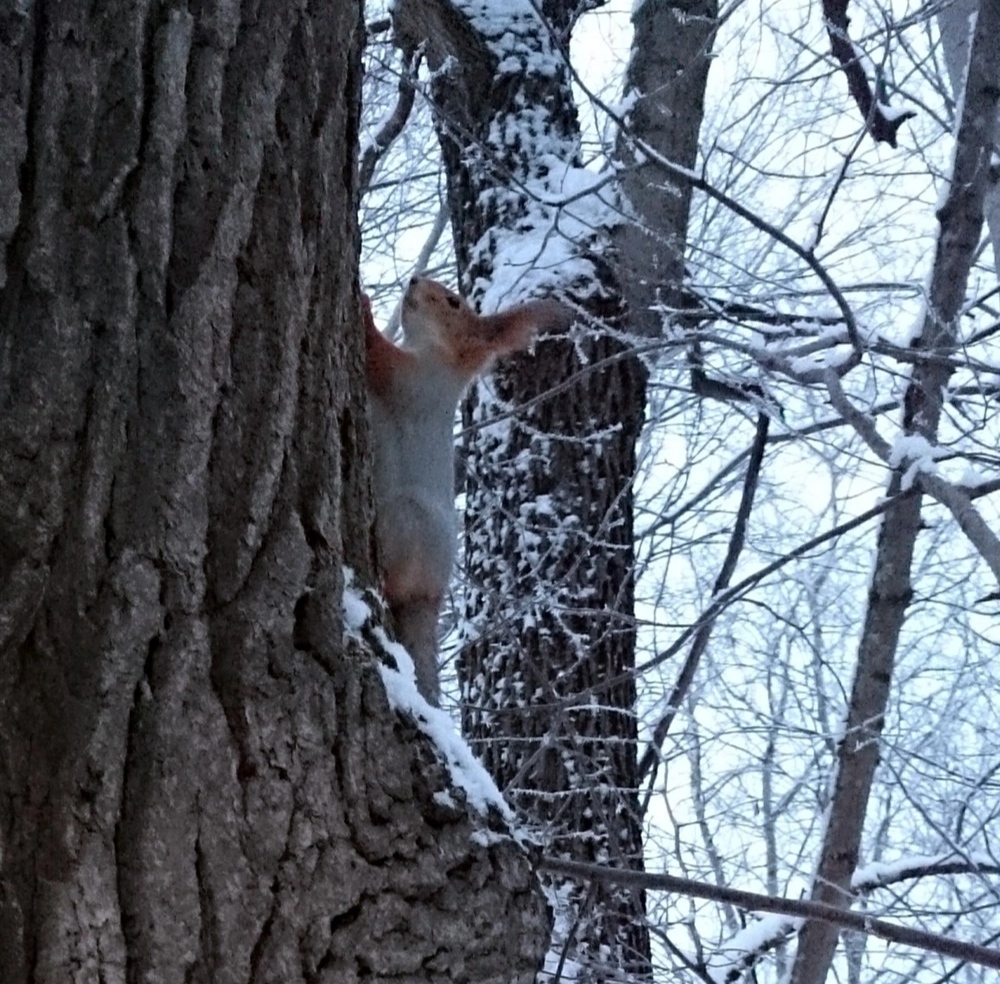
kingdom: Animalia
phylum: Chordata
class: Mammalia
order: Rodentia
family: Sciuridae
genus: Sciurus
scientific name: Sciurus vulgaris
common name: Eurasian red squirrel
